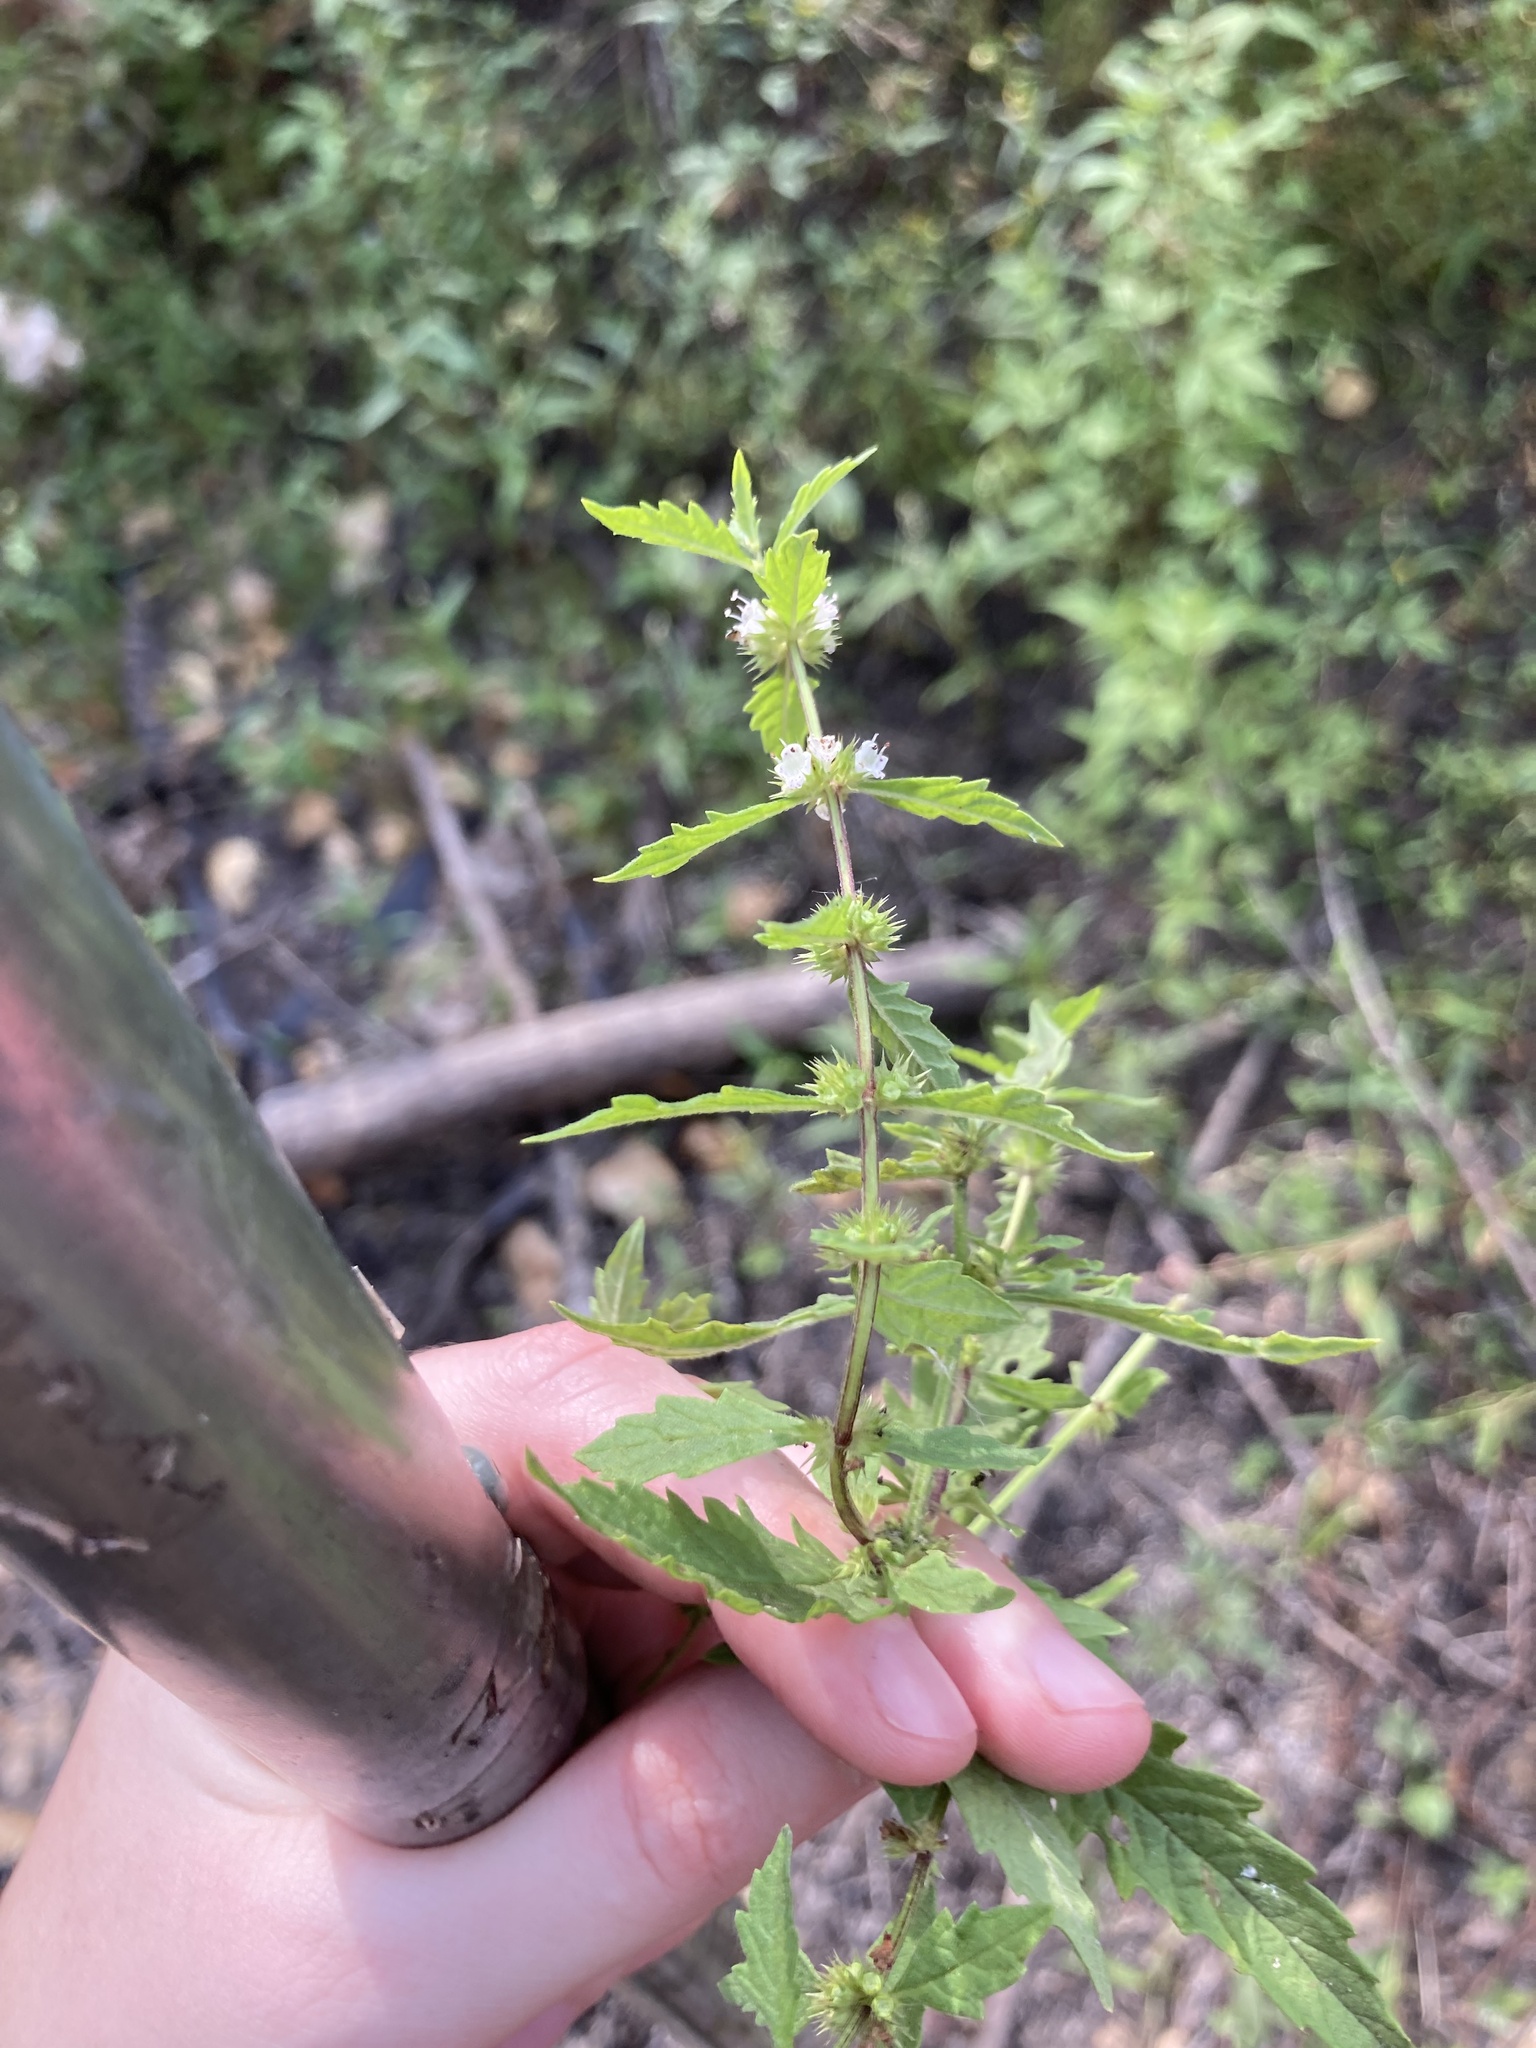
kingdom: Plantae
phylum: Tracheophyta
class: Magnoliopsida
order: Lamiales
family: Lamiaceae
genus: Lycopus
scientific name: Lycopus europaeus
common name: European bugleweed
